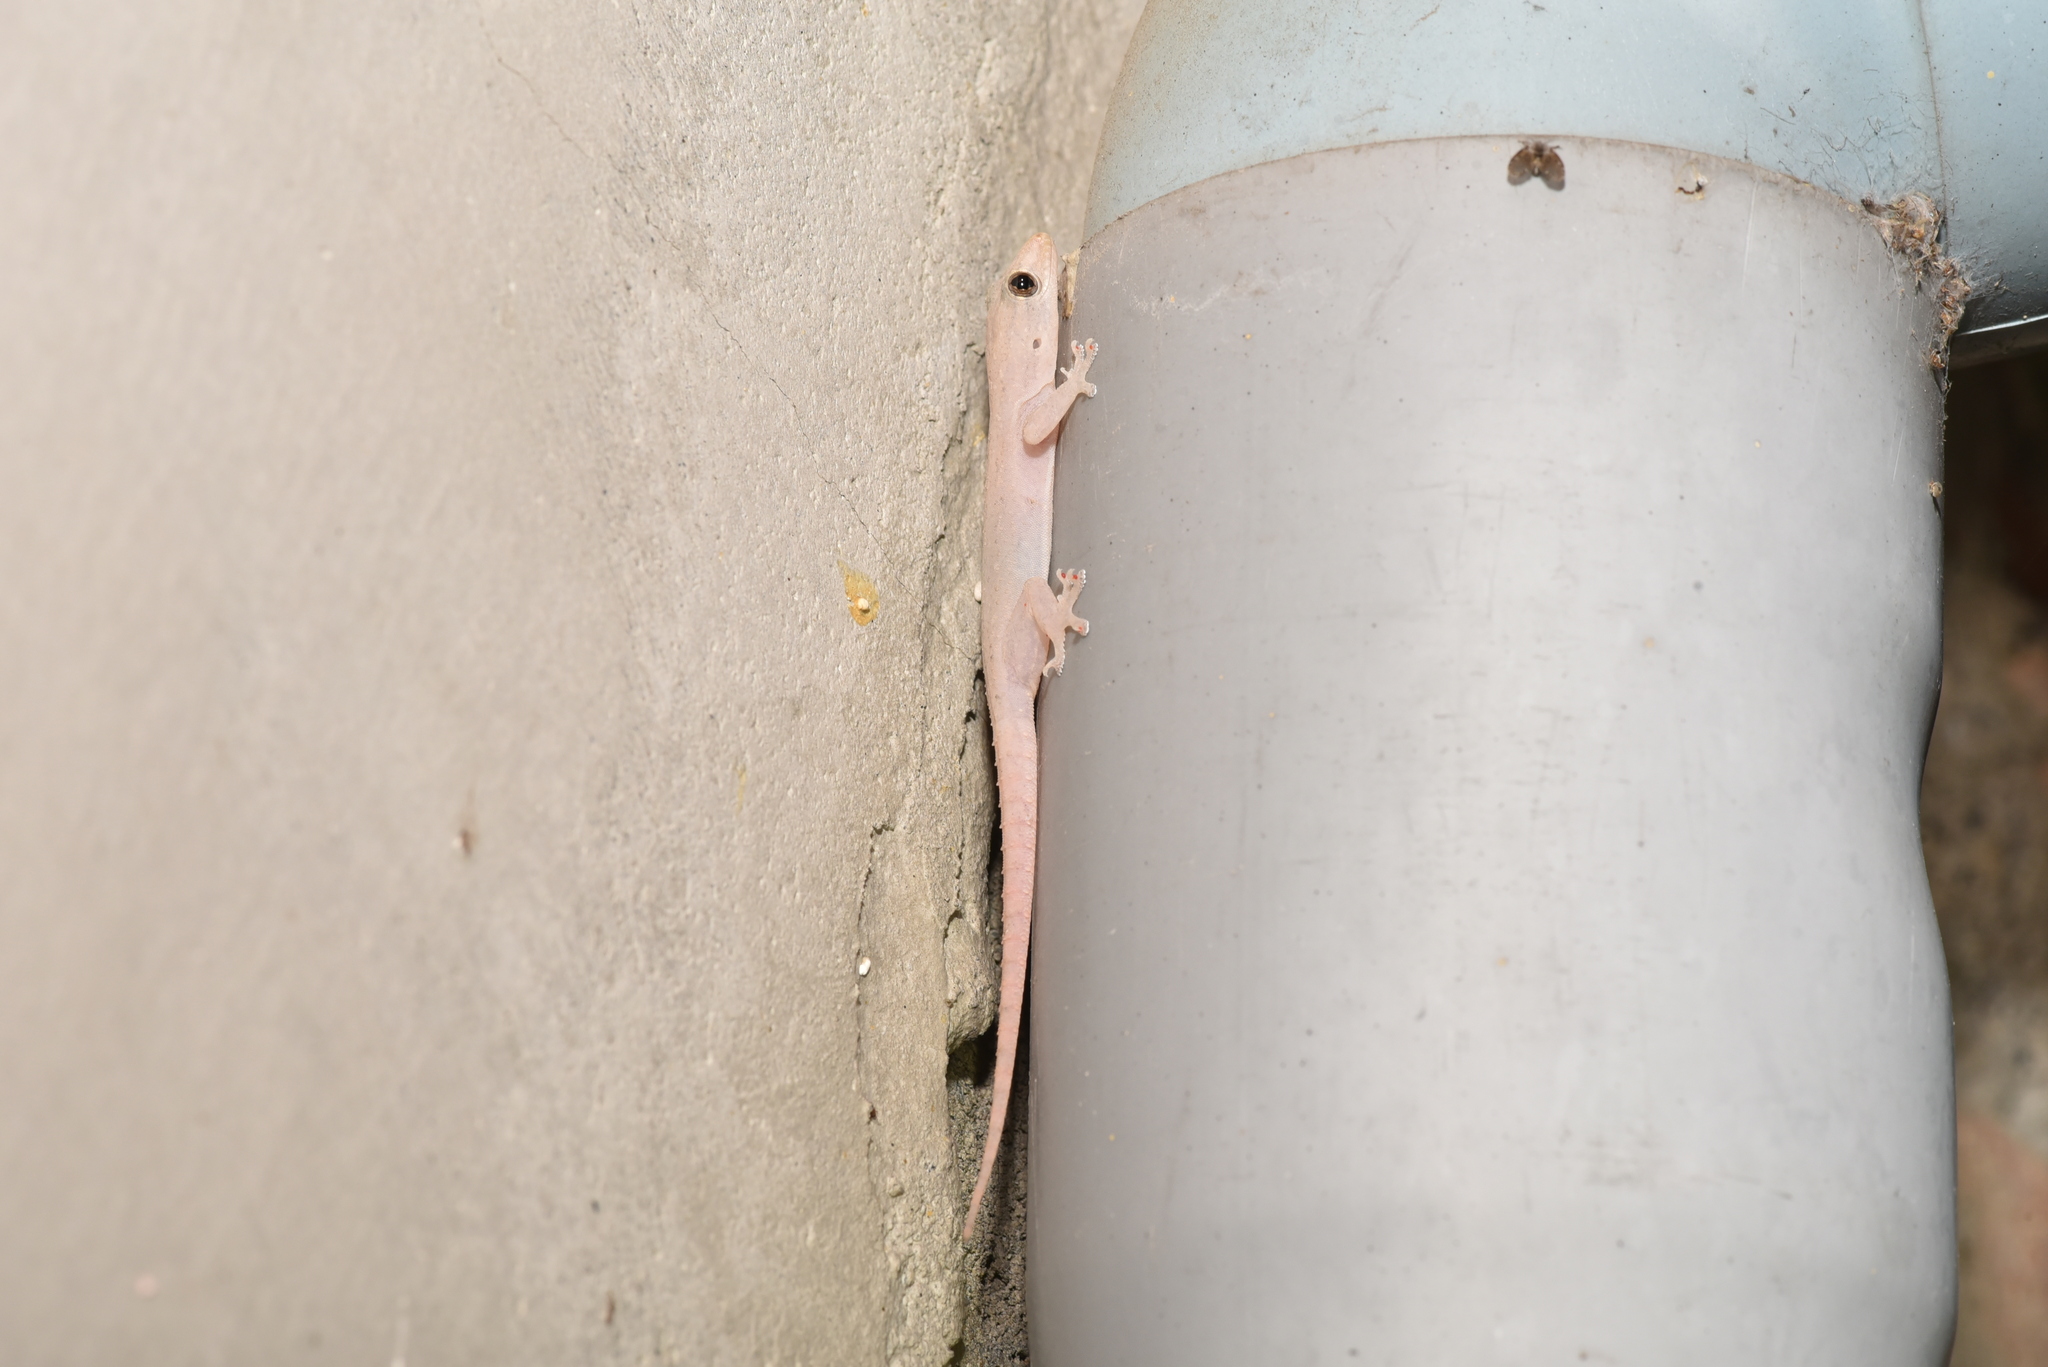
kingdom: Animalia
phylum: Chordata
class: Squamata
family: Gekkonidae
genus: Hemidactylus
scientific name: Hemidactylus frenatus
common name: Common house gecko
